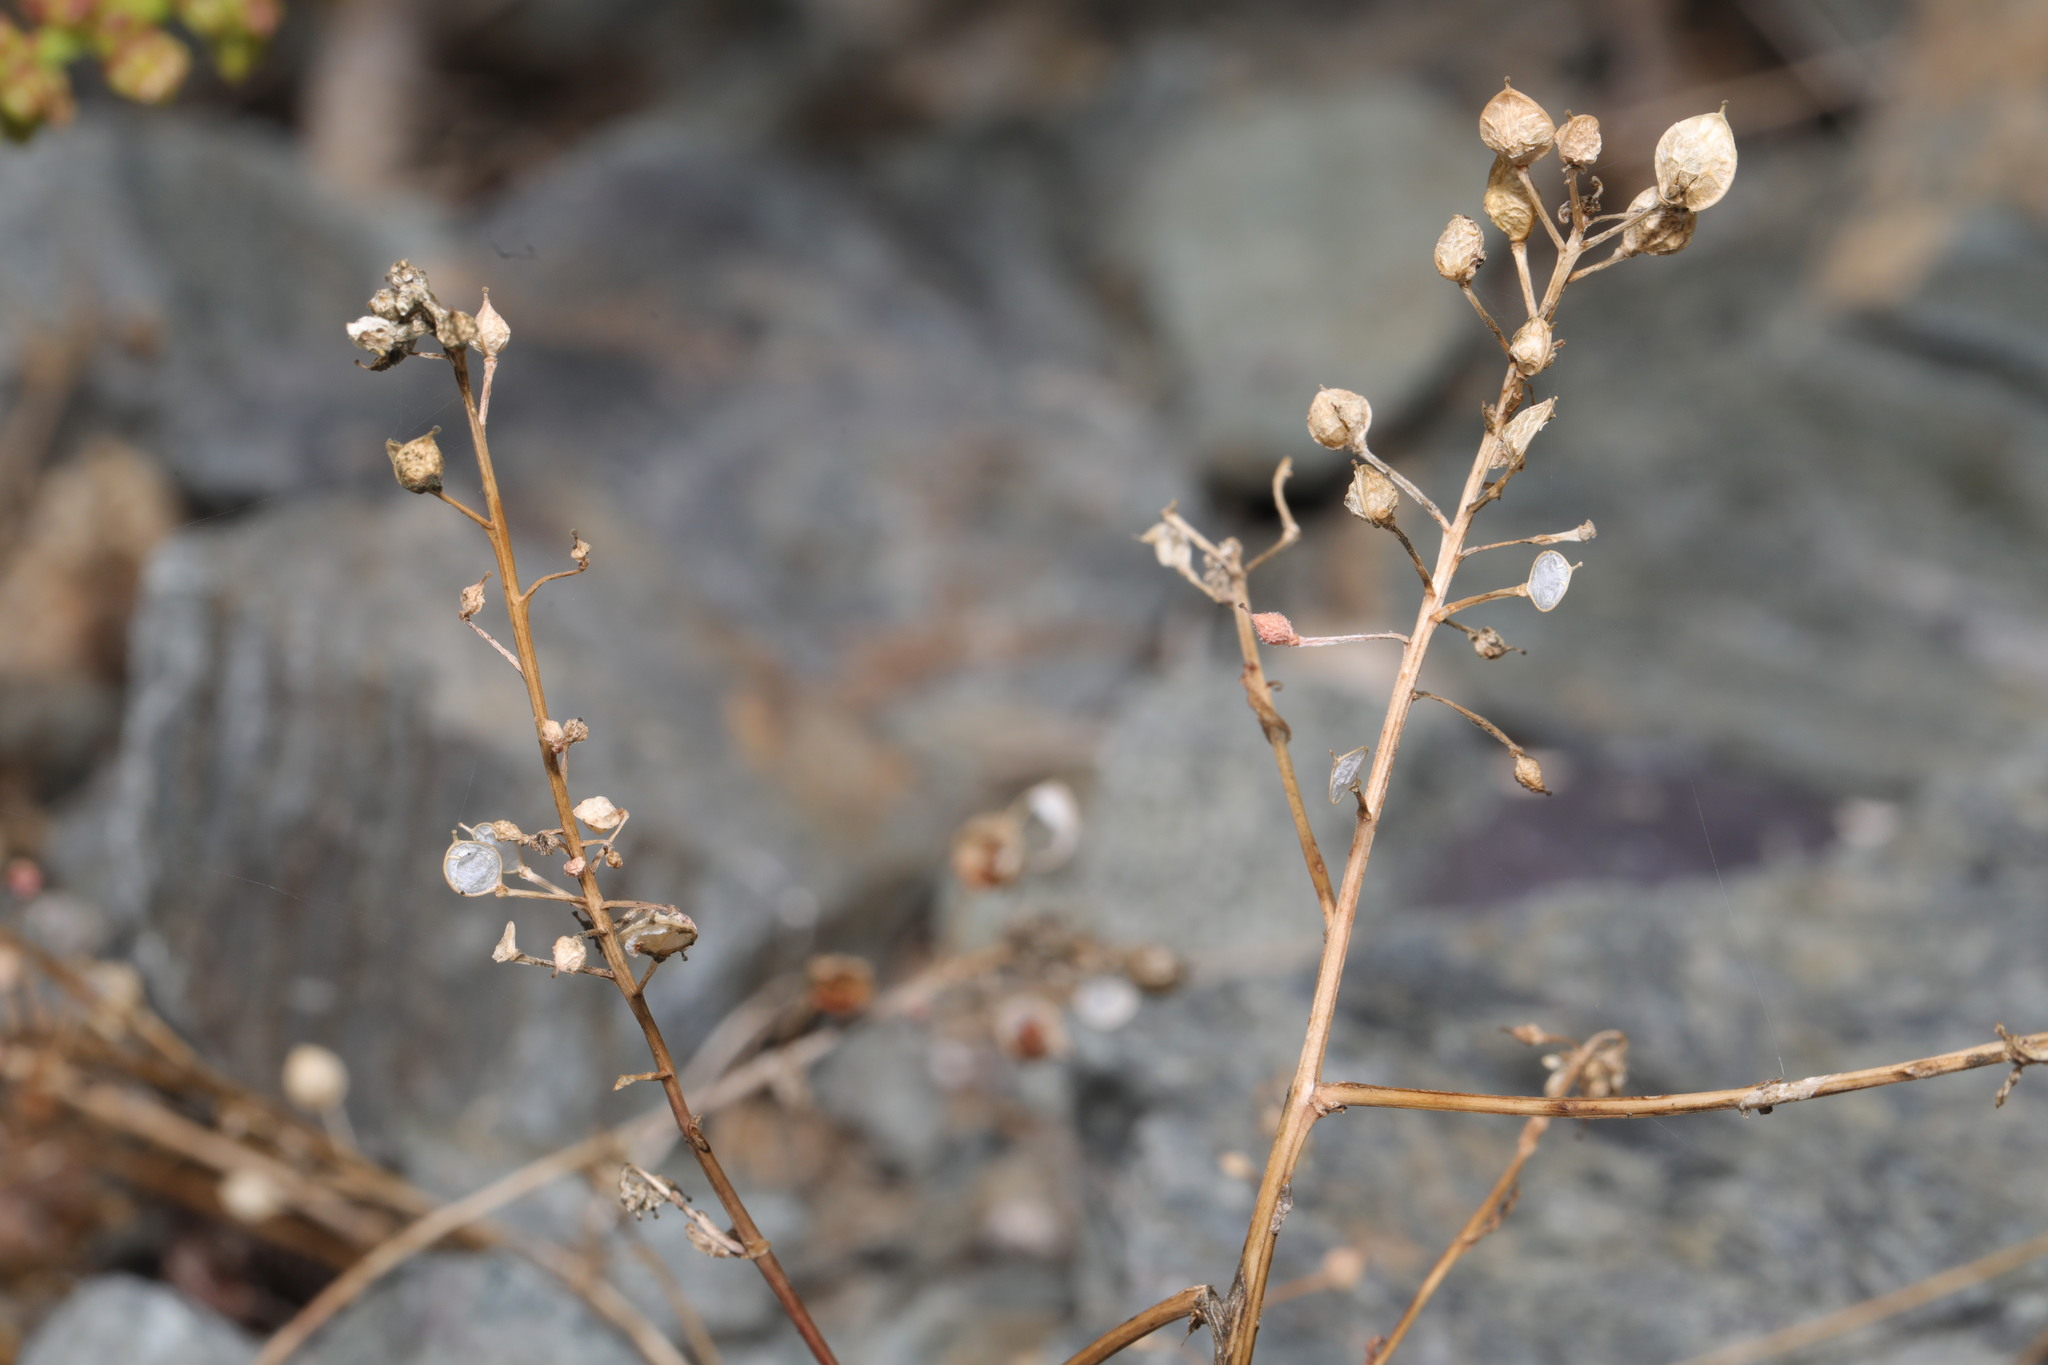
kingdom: Plantae
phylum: Tracheophyta
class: Magnoliopsida
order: Brassicales
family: Brassicaceae
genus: Draba
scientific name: Draba verna
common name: Spring draba
